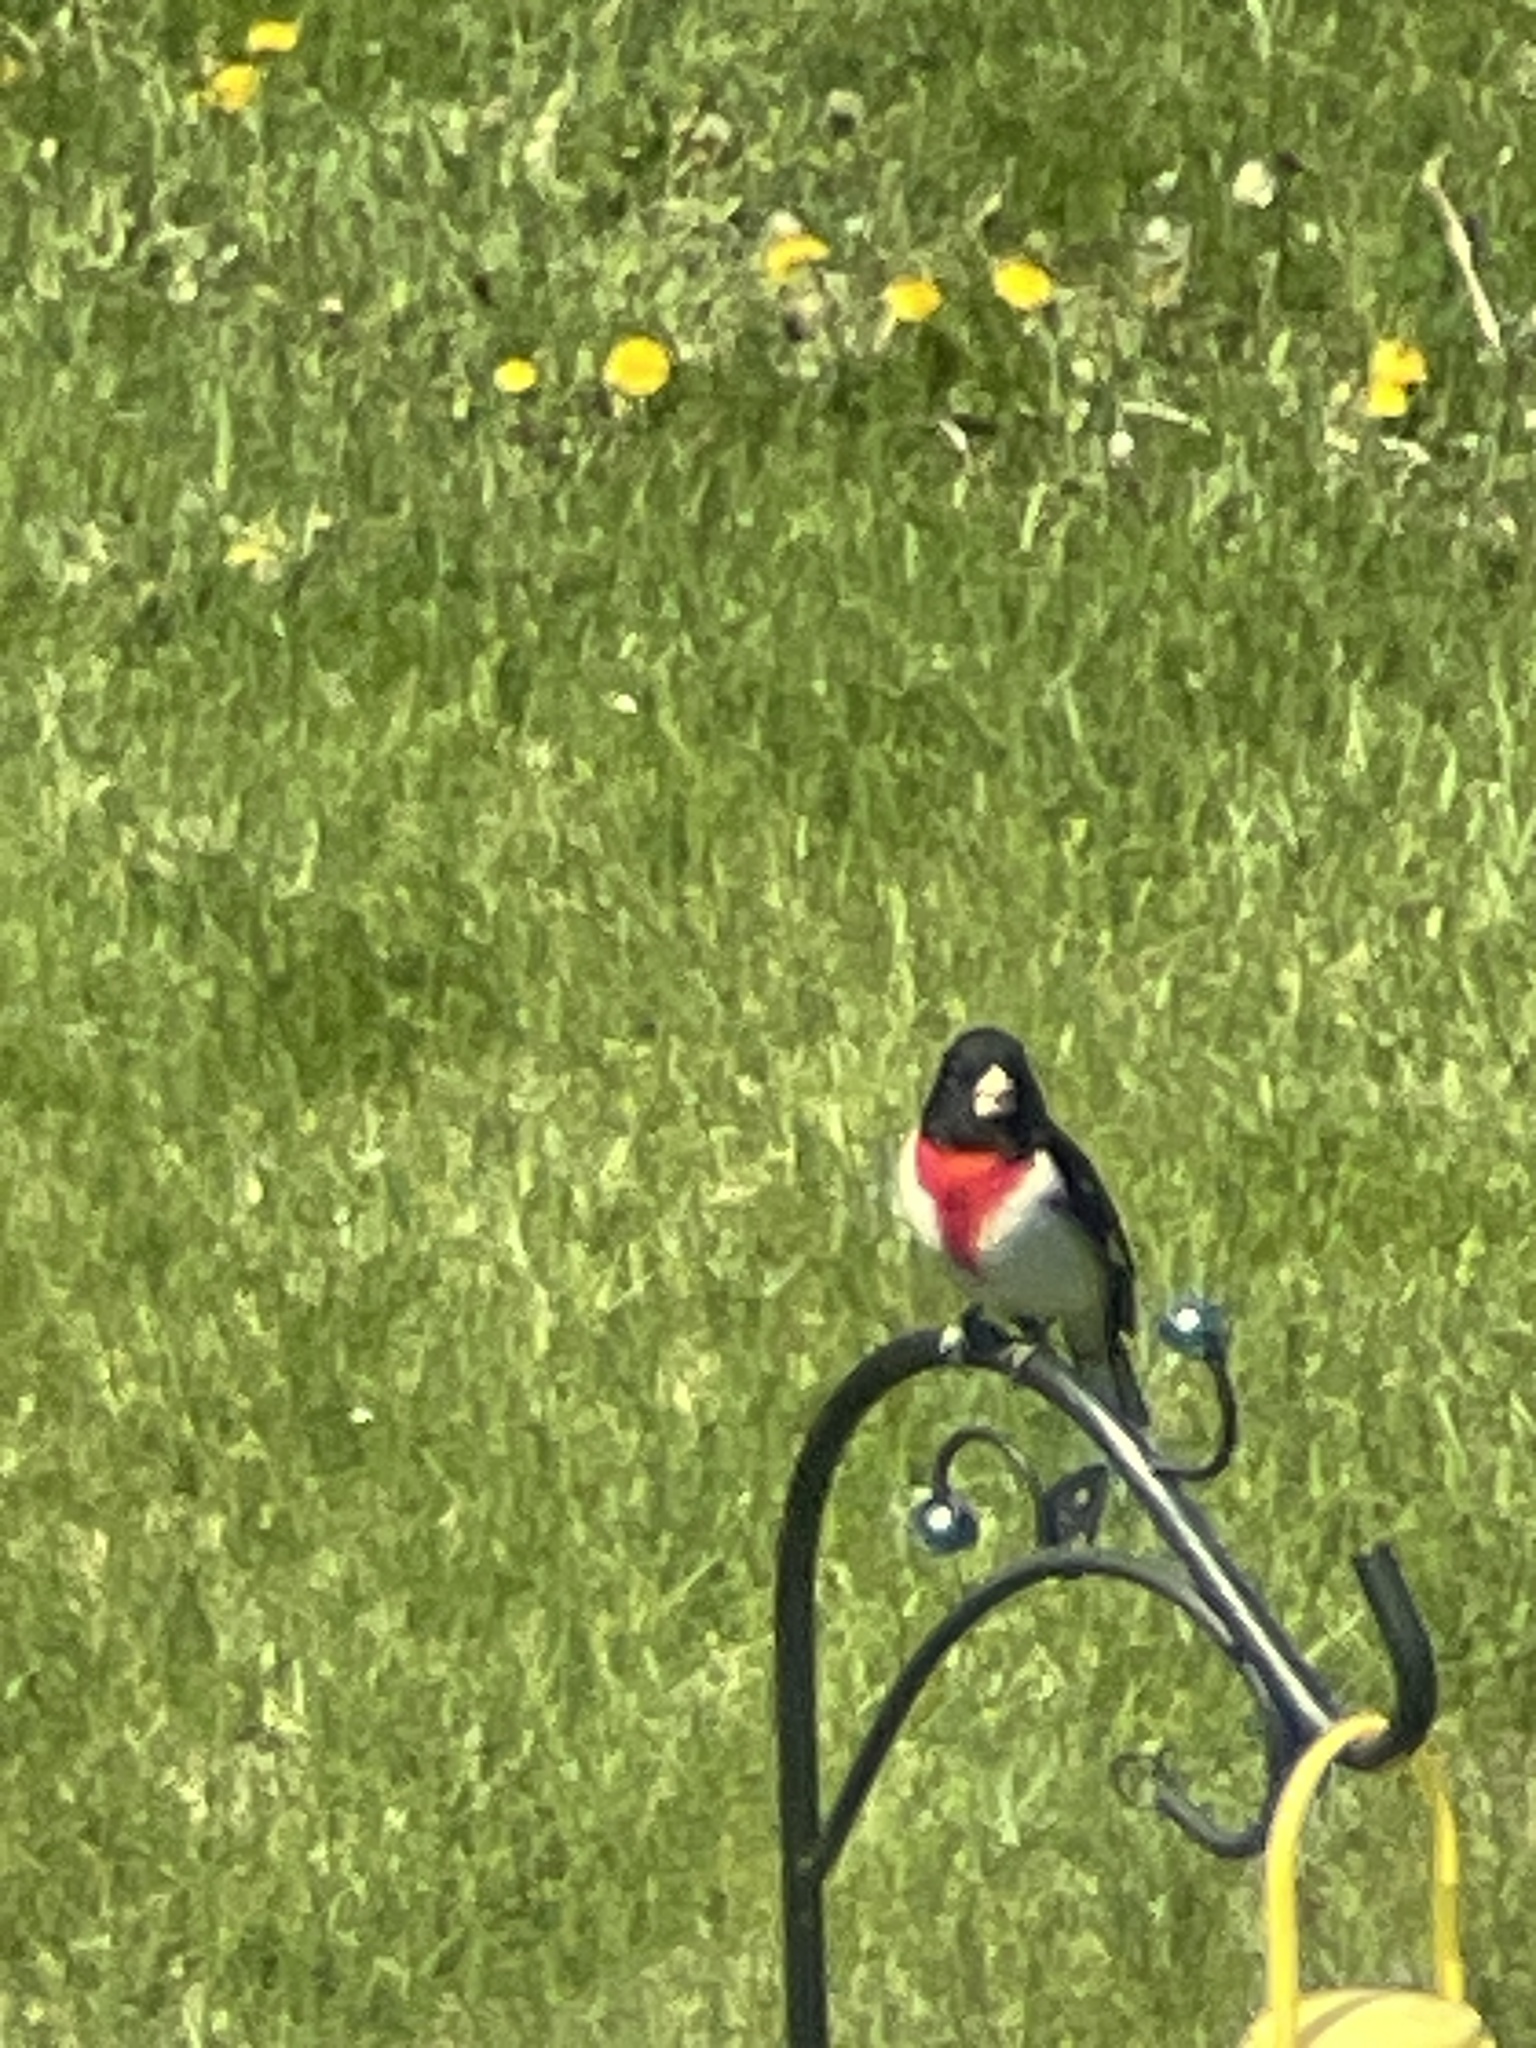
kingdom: Animalia
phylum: Chordata
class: Aves
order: Passeriformes
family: Cardinalidae
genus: Pheucticus
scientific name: Pheucticus ludovicianus
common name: Rose-breasted grosbeak
